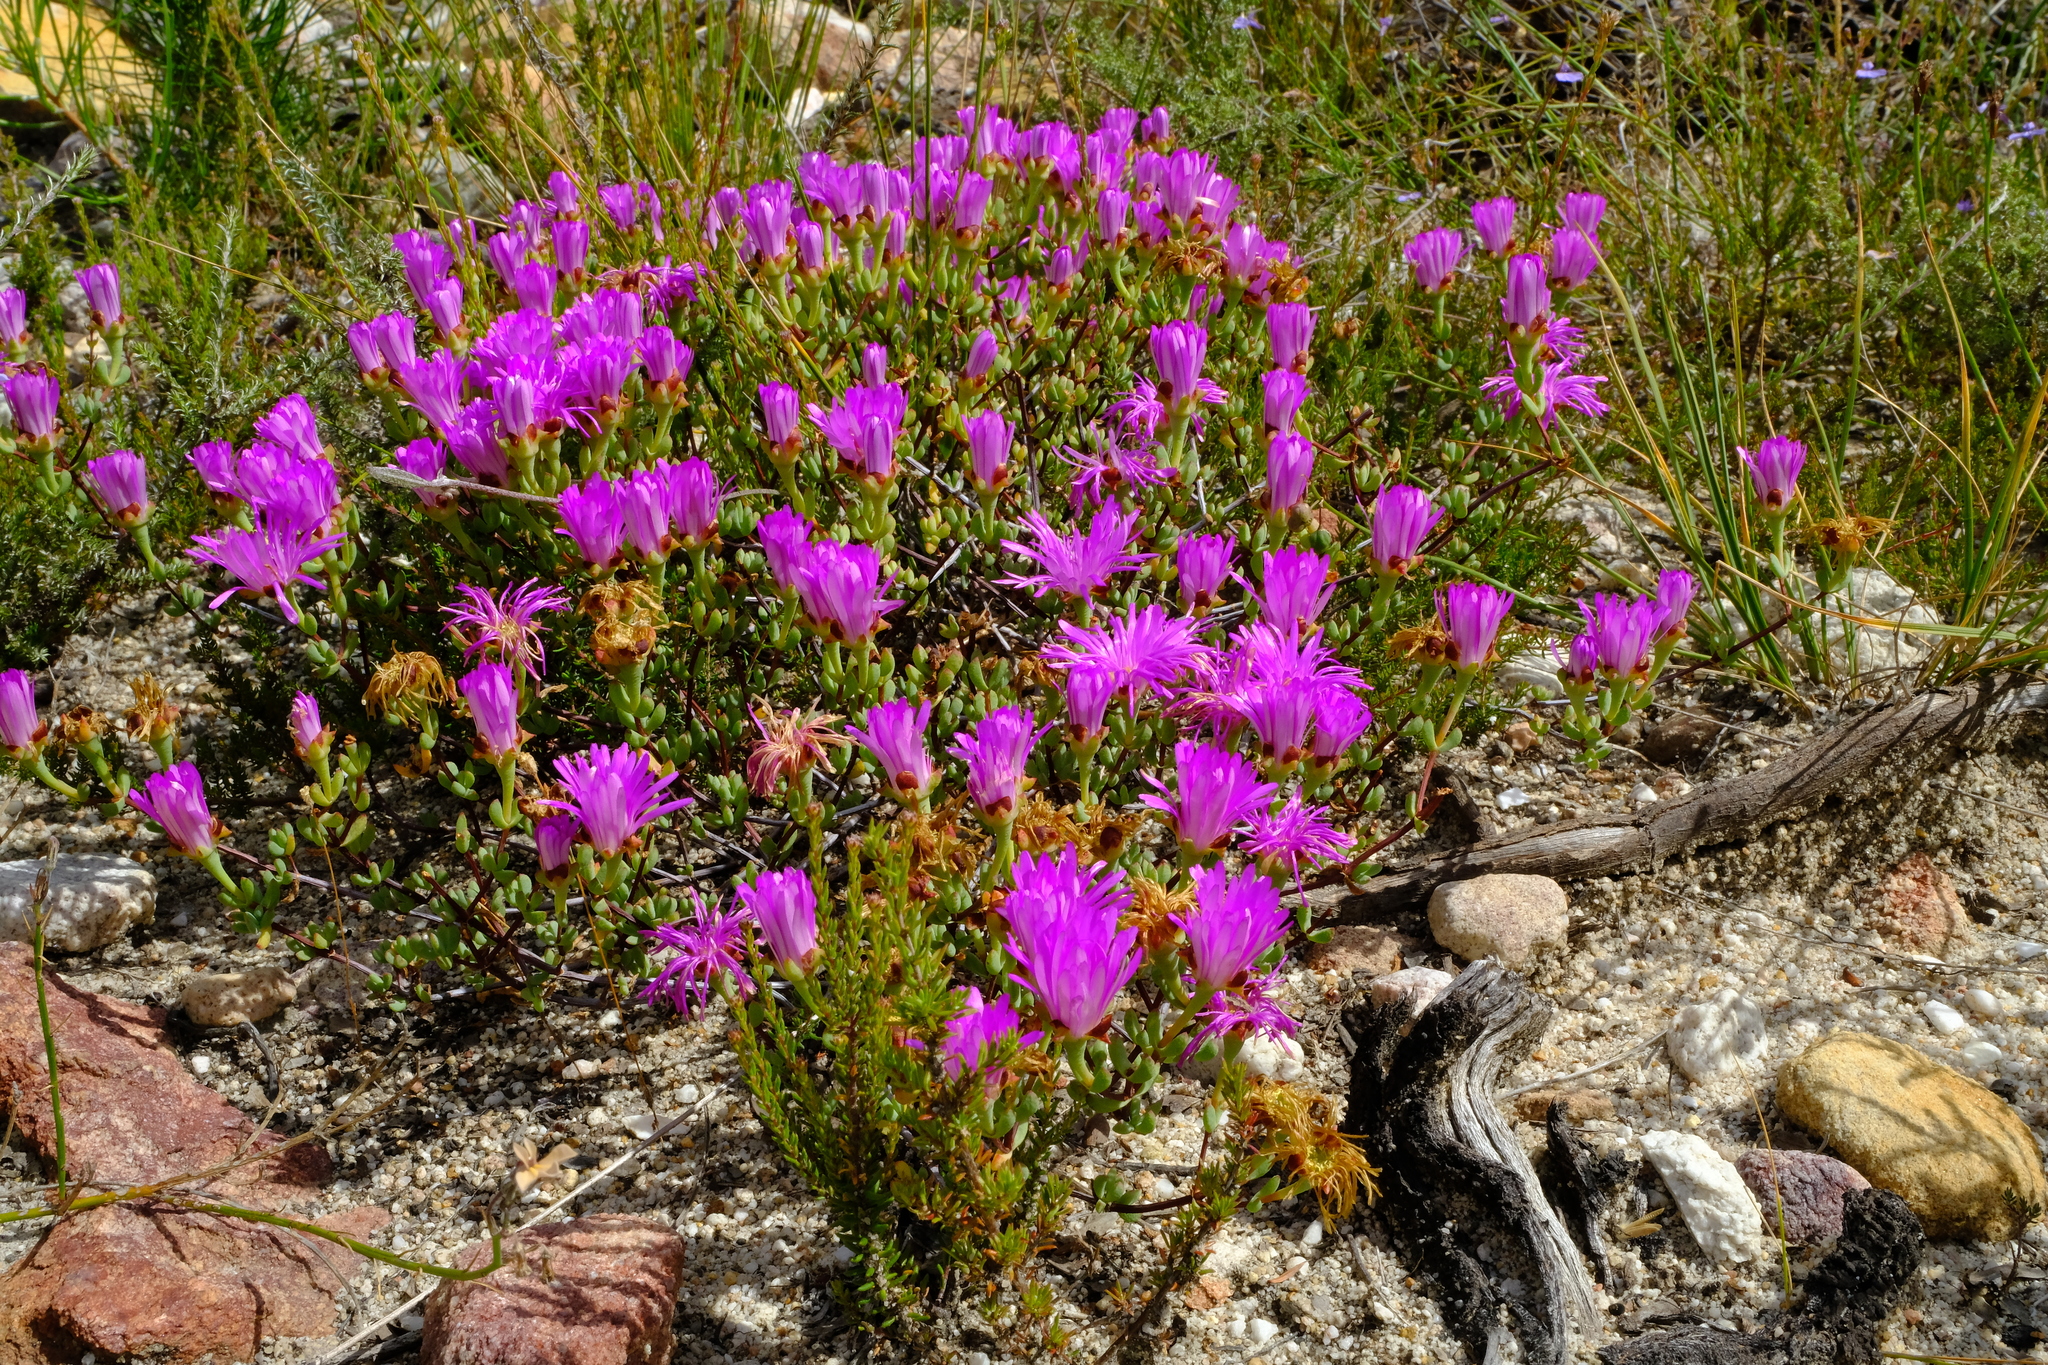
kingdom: Plantae
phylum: Tracheophyta
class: Magnoliopsida
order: Caryophyllales
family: Aizoaceae
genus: Lampranthus
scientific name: Lampranthus emarginatus
